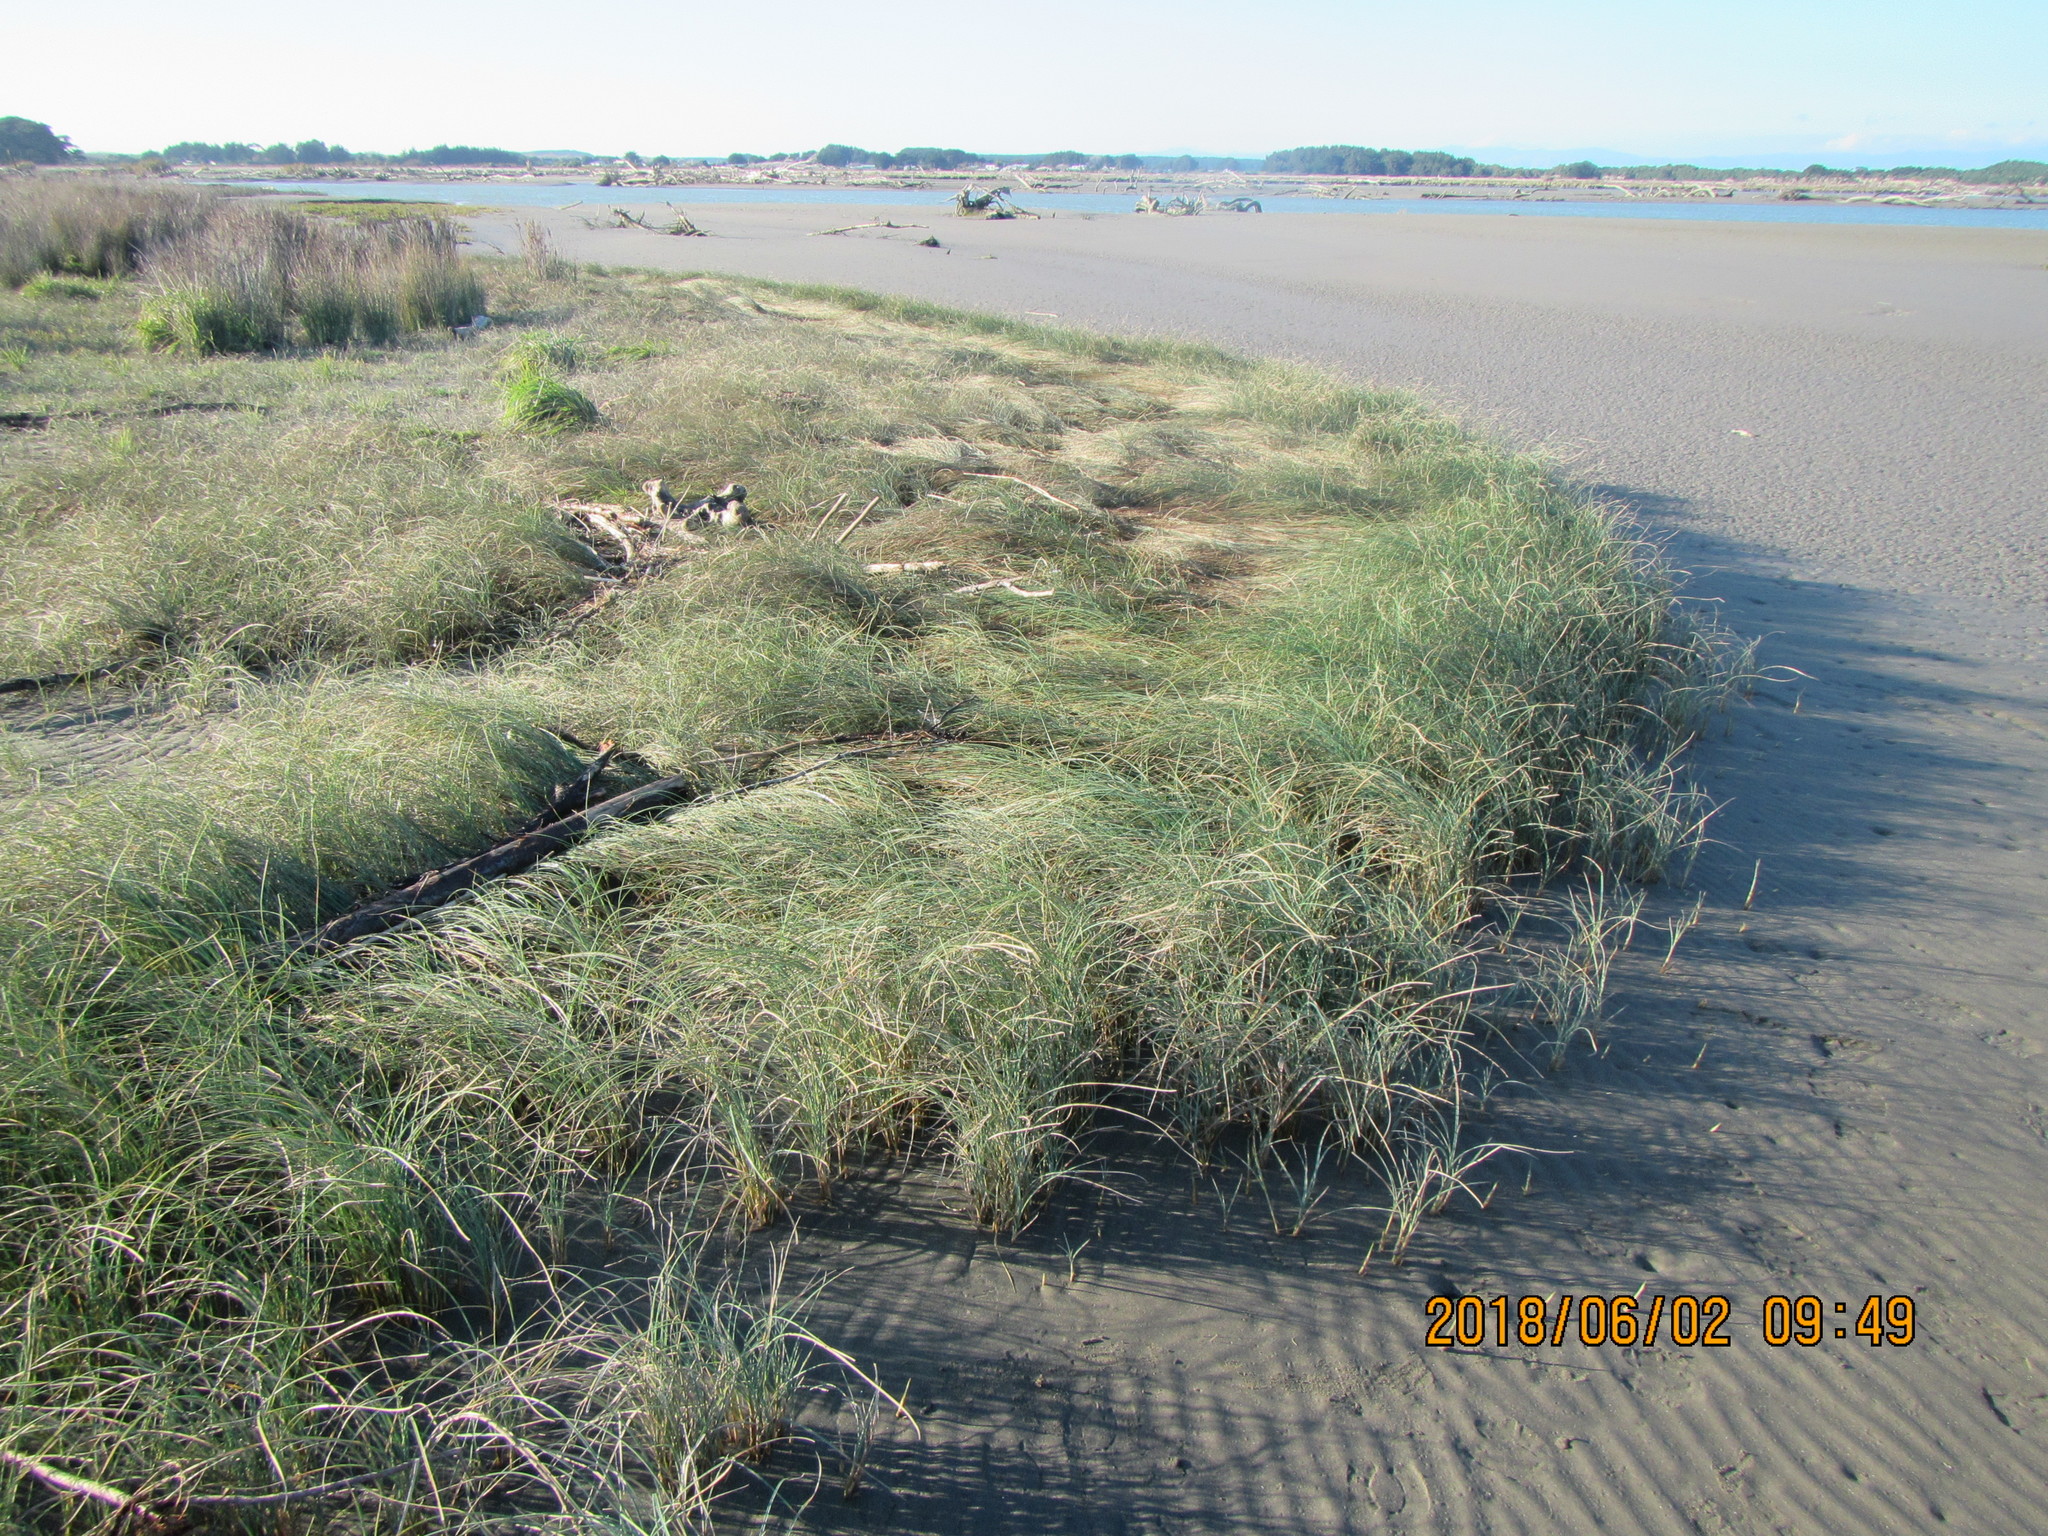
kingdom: Plantae
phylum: Tracheophyta
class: Liliopsida
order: Poales
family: Cyperaceae
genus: Carex
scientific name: Carex pumila
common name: Dwarf sedge
